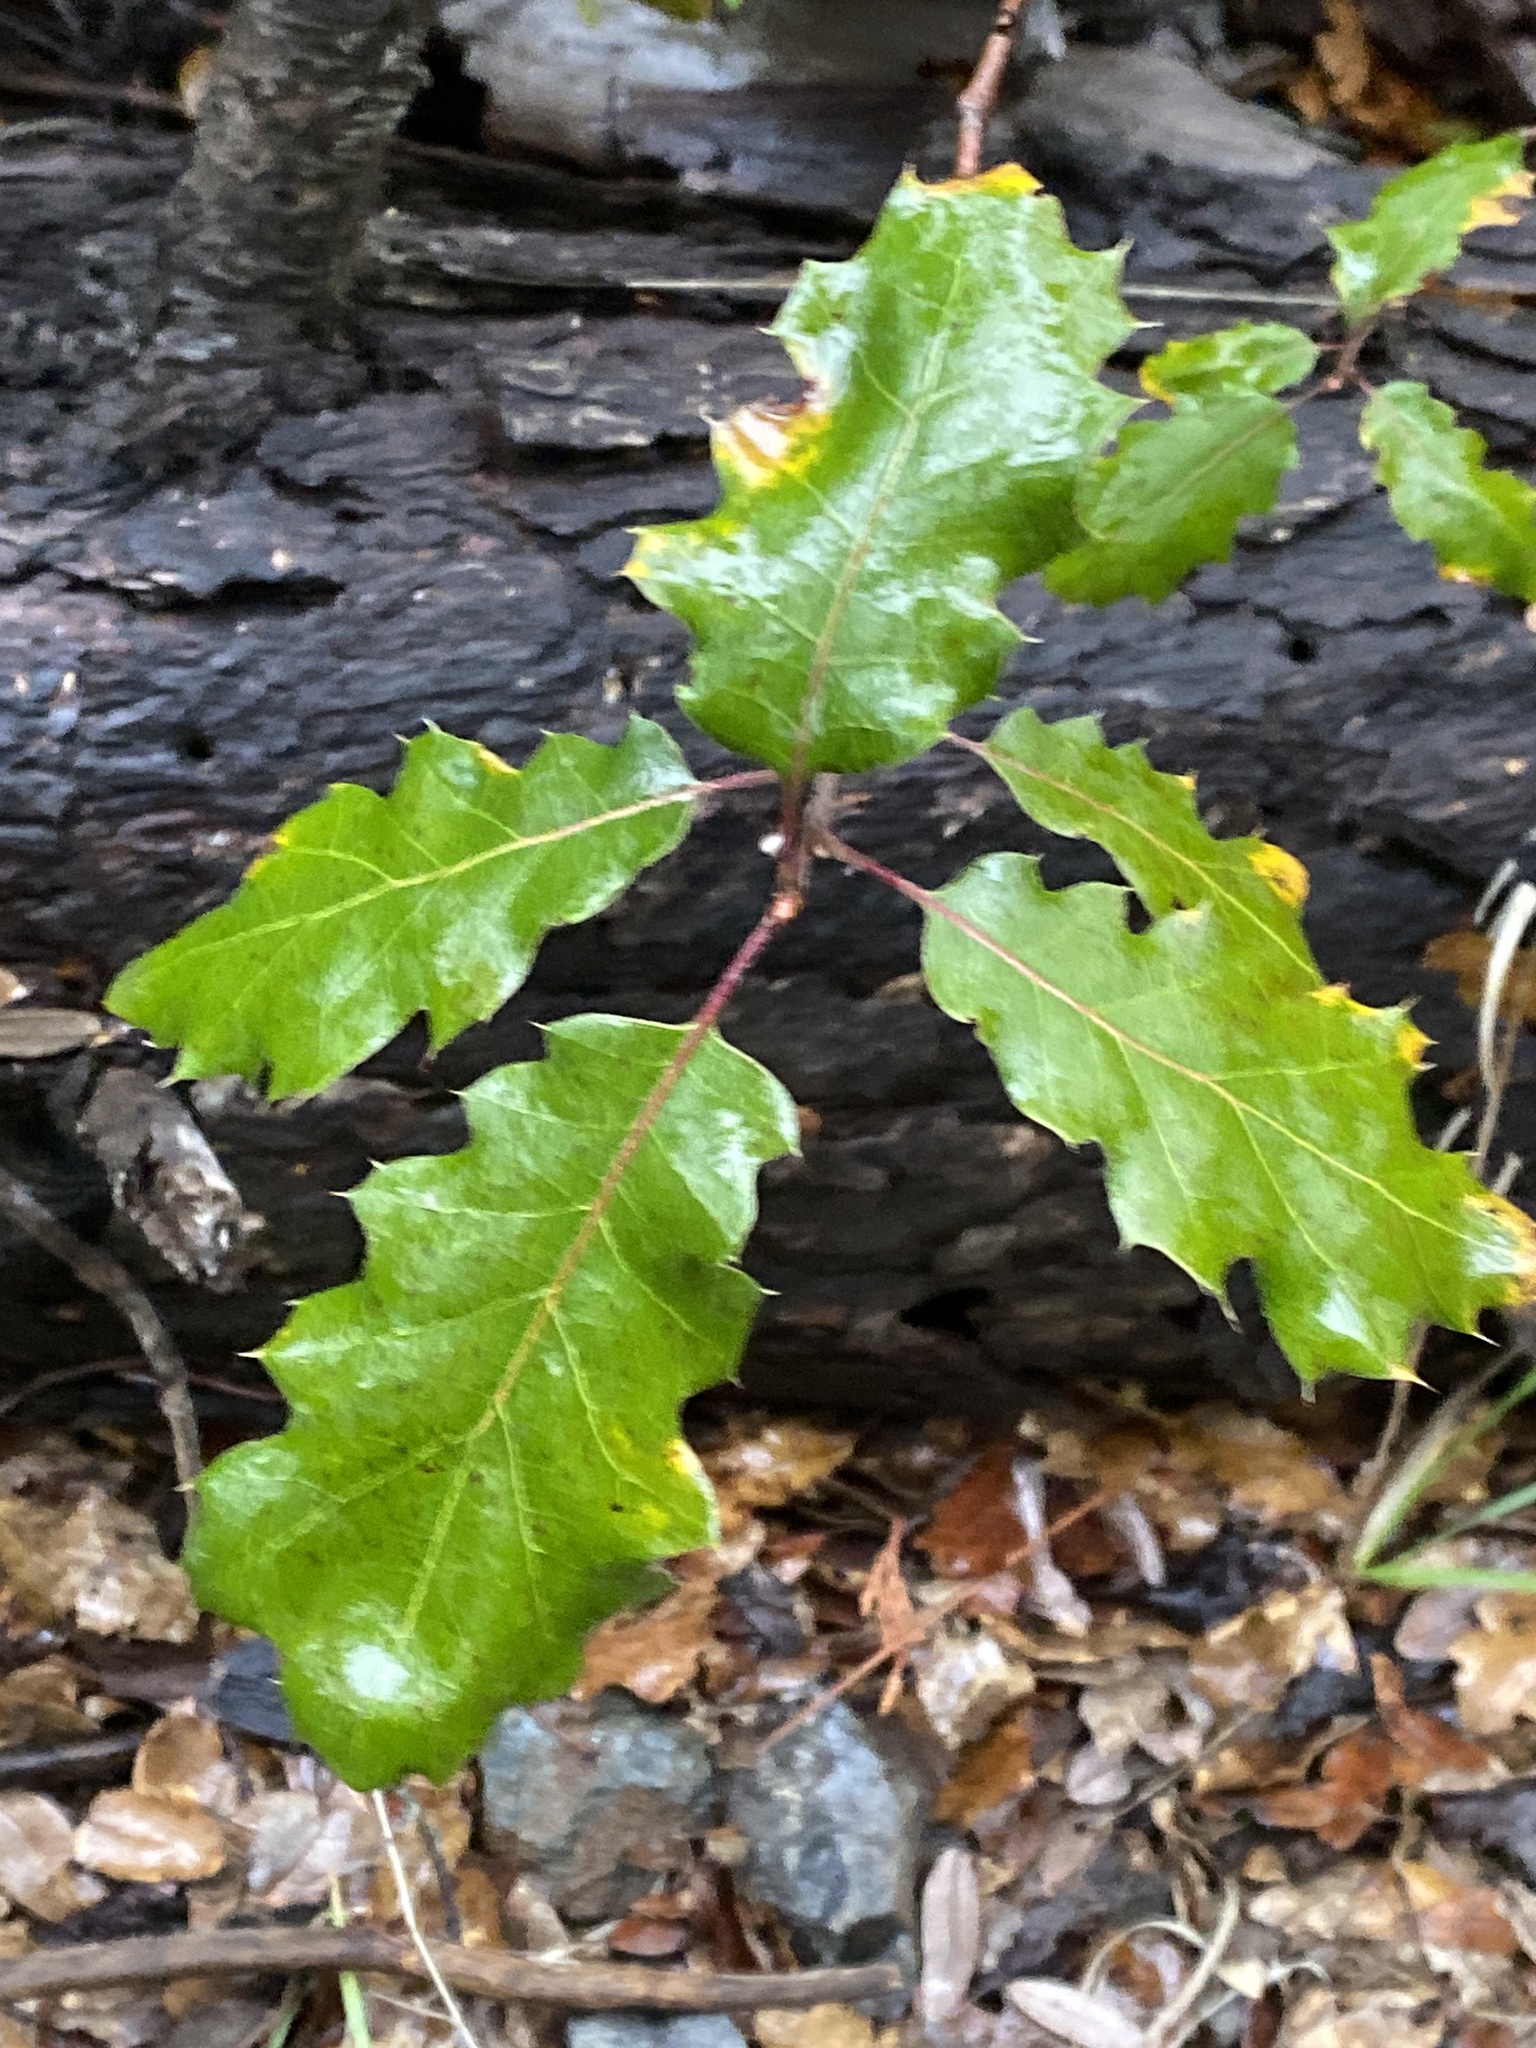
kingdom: Plantae
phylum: Tracheophyta
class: Magnoliopsida
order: Fagales
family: Fagaceae
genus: Quercus
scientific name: Quercus morehus
